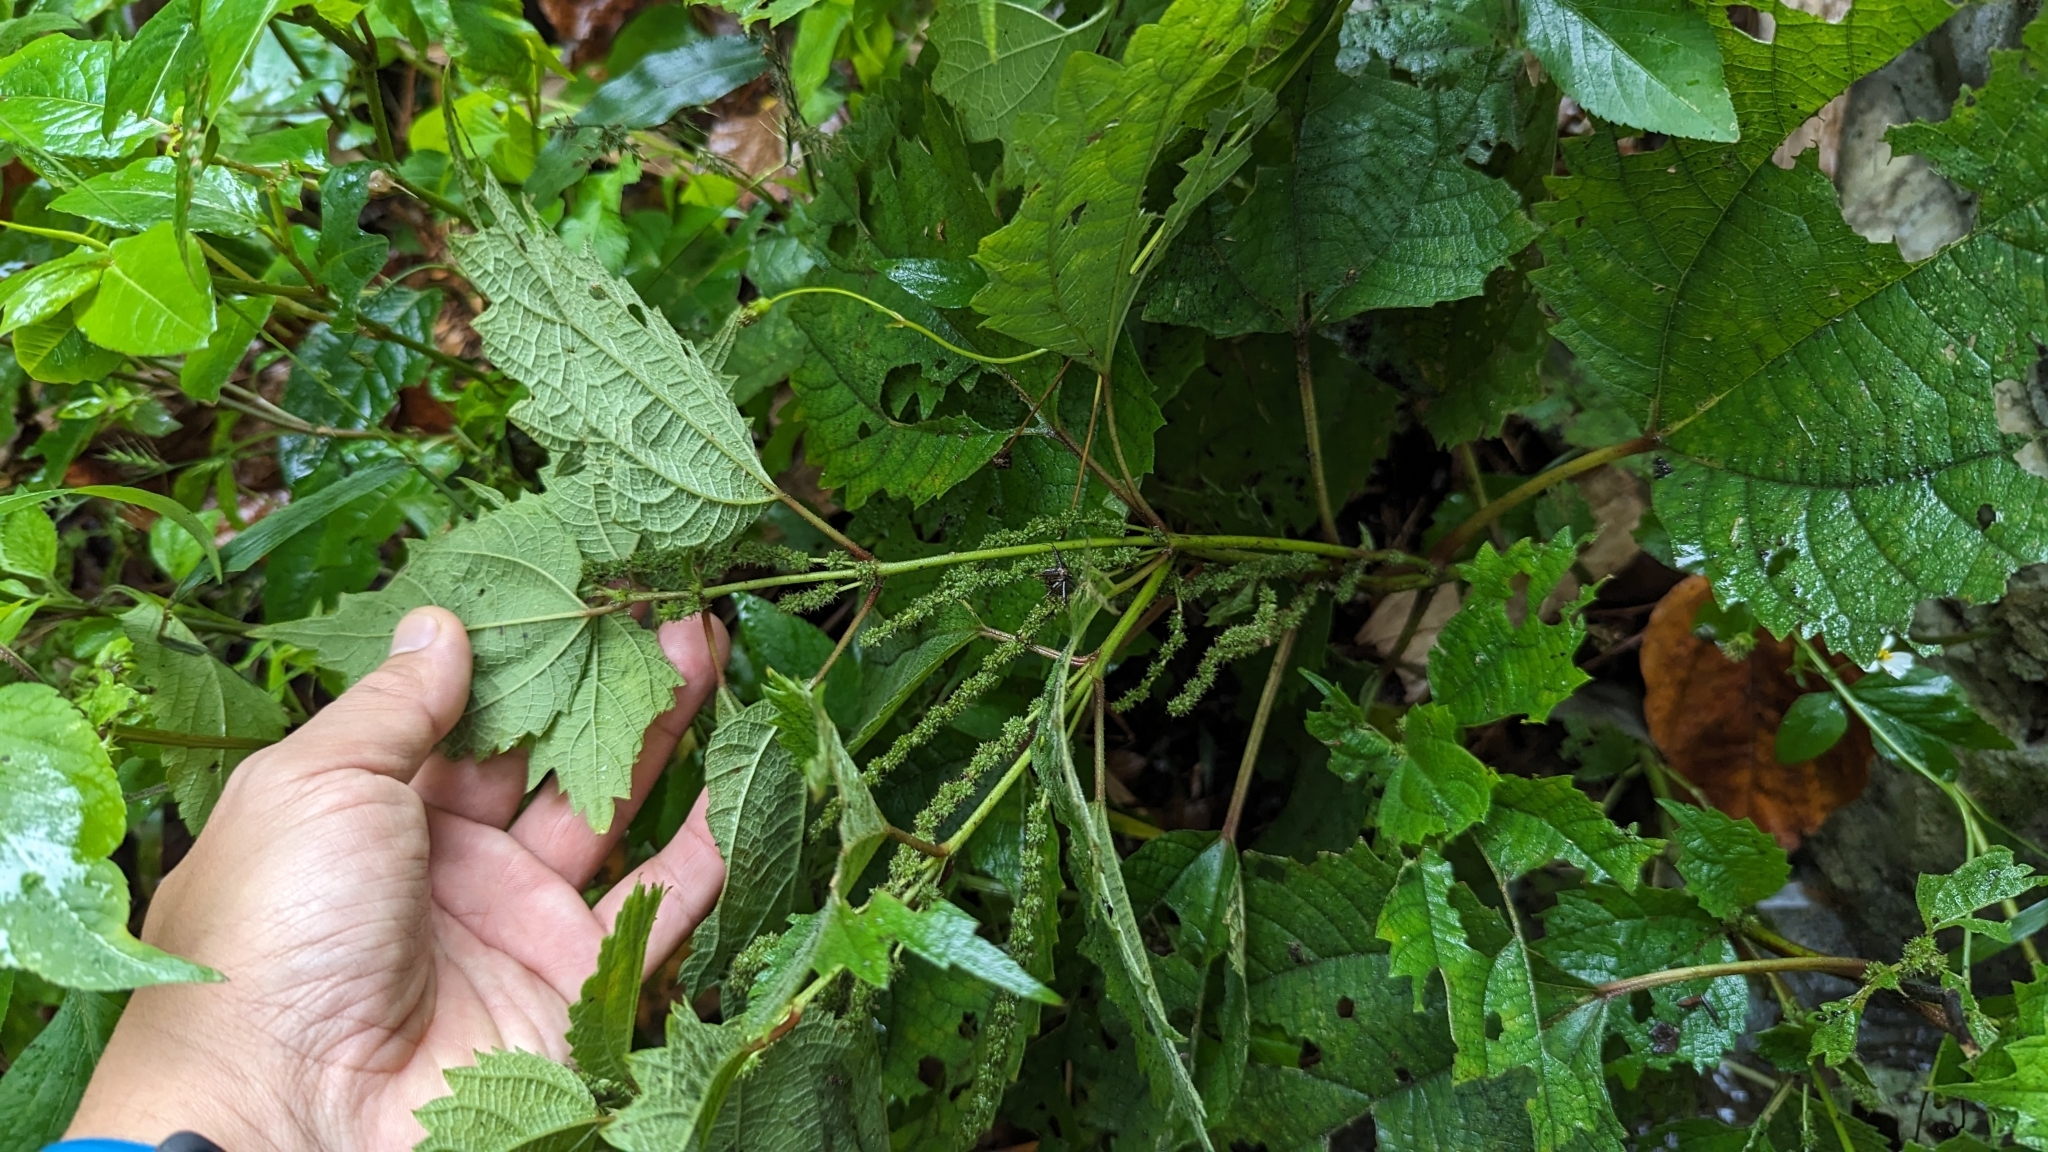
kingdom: Plantae
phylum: Tracheophyta
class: Magnoliopsida
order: Rosales
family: Urticaceae
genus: Boehmeria
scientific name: Boehmeria japonica
